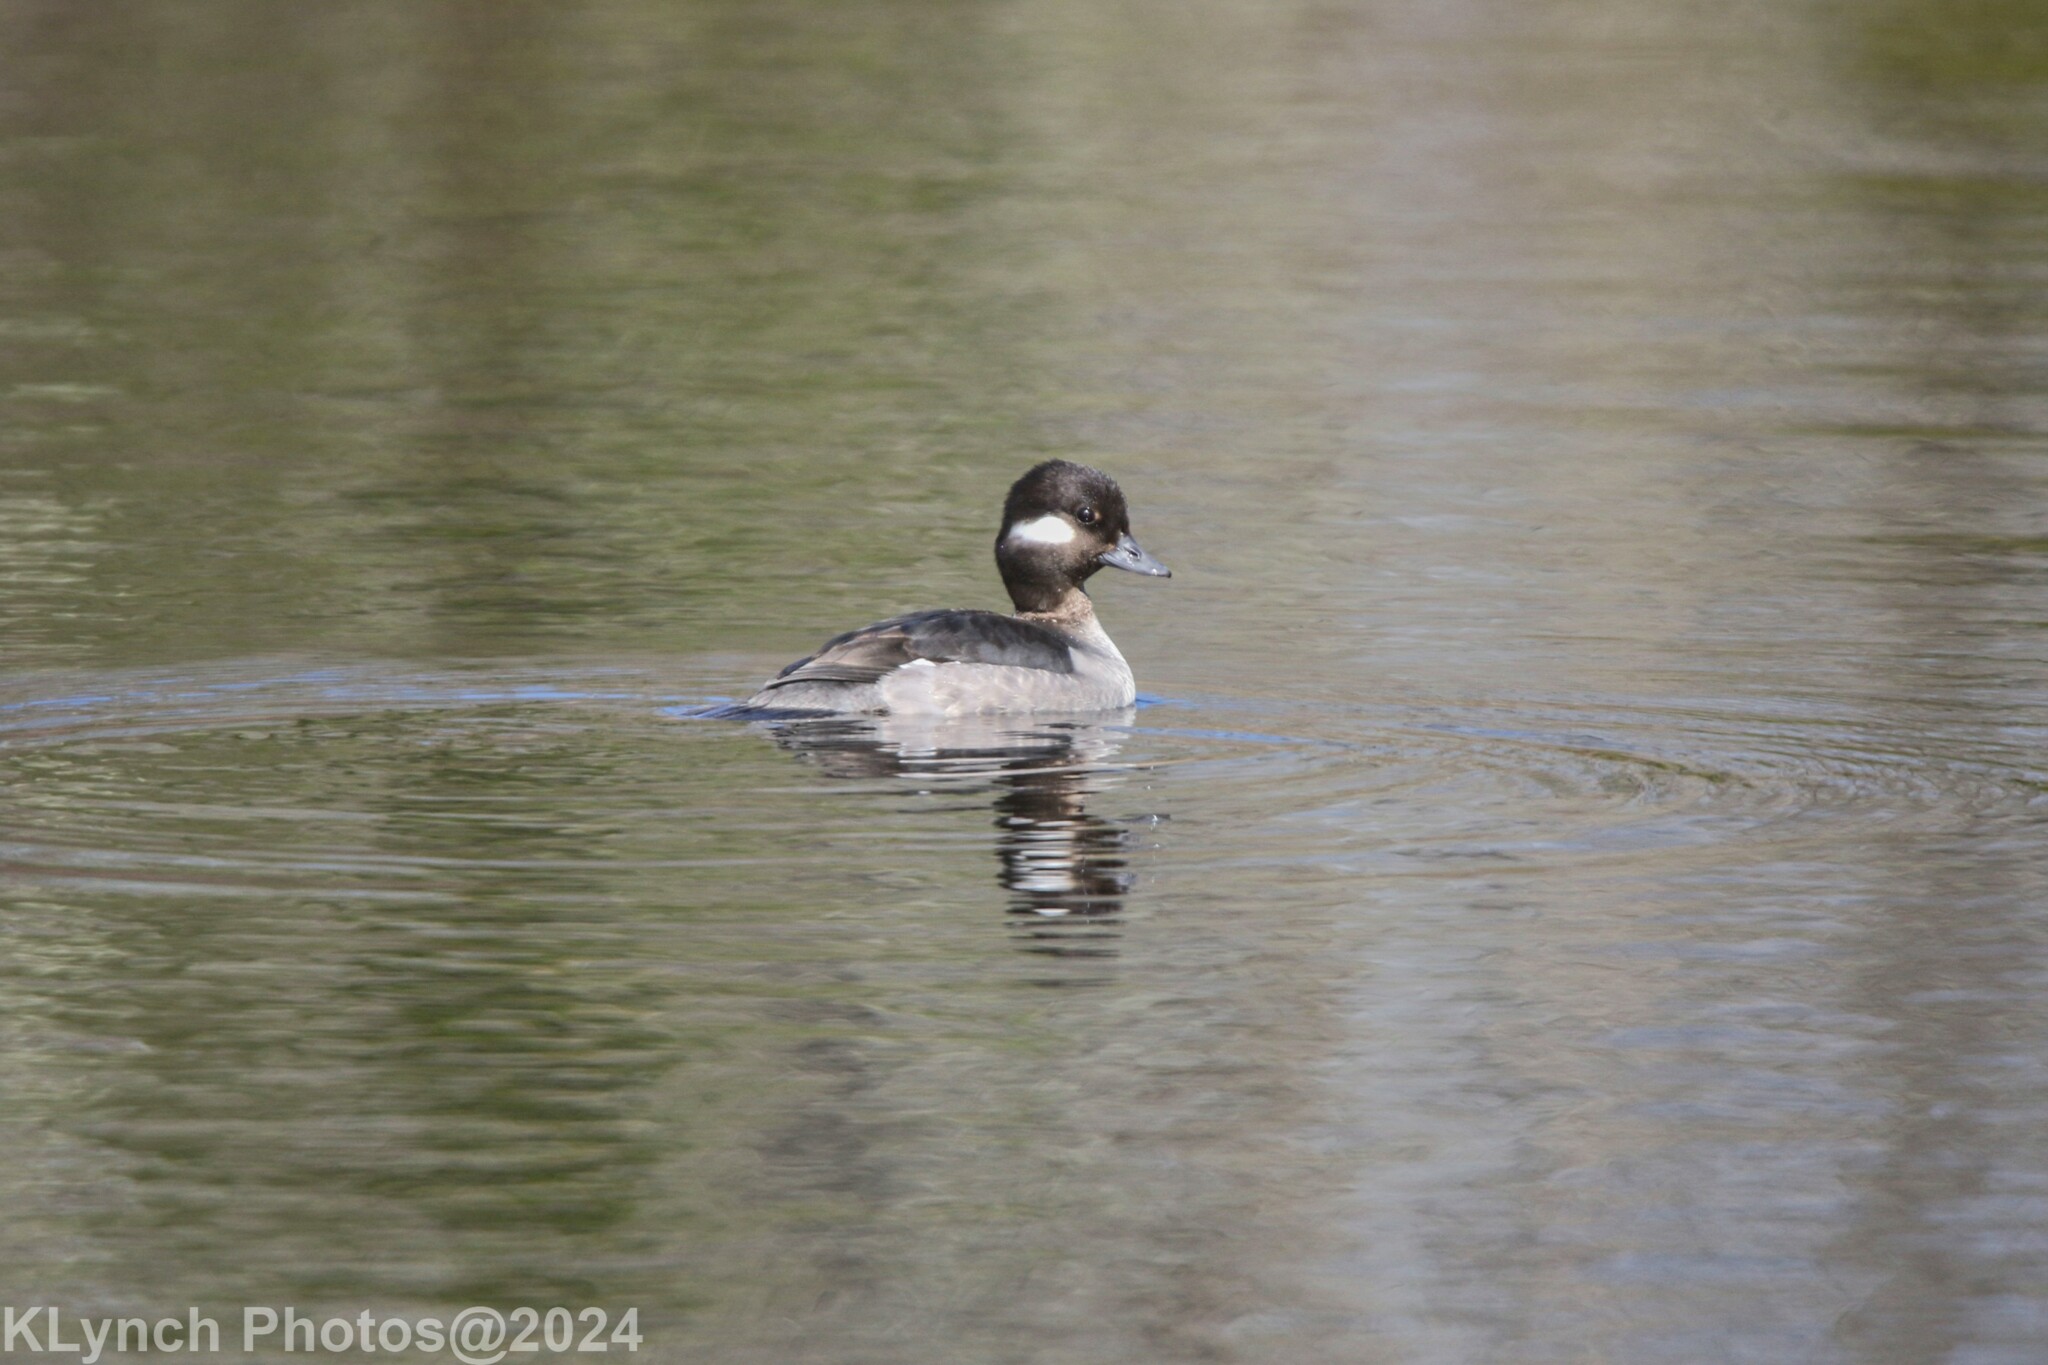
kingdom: Animalia
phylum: Chordata
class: Aves
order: Anseriformes
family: Anatidae
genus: Bucephala
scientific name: Bucephala albeola
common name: Bufflehead
